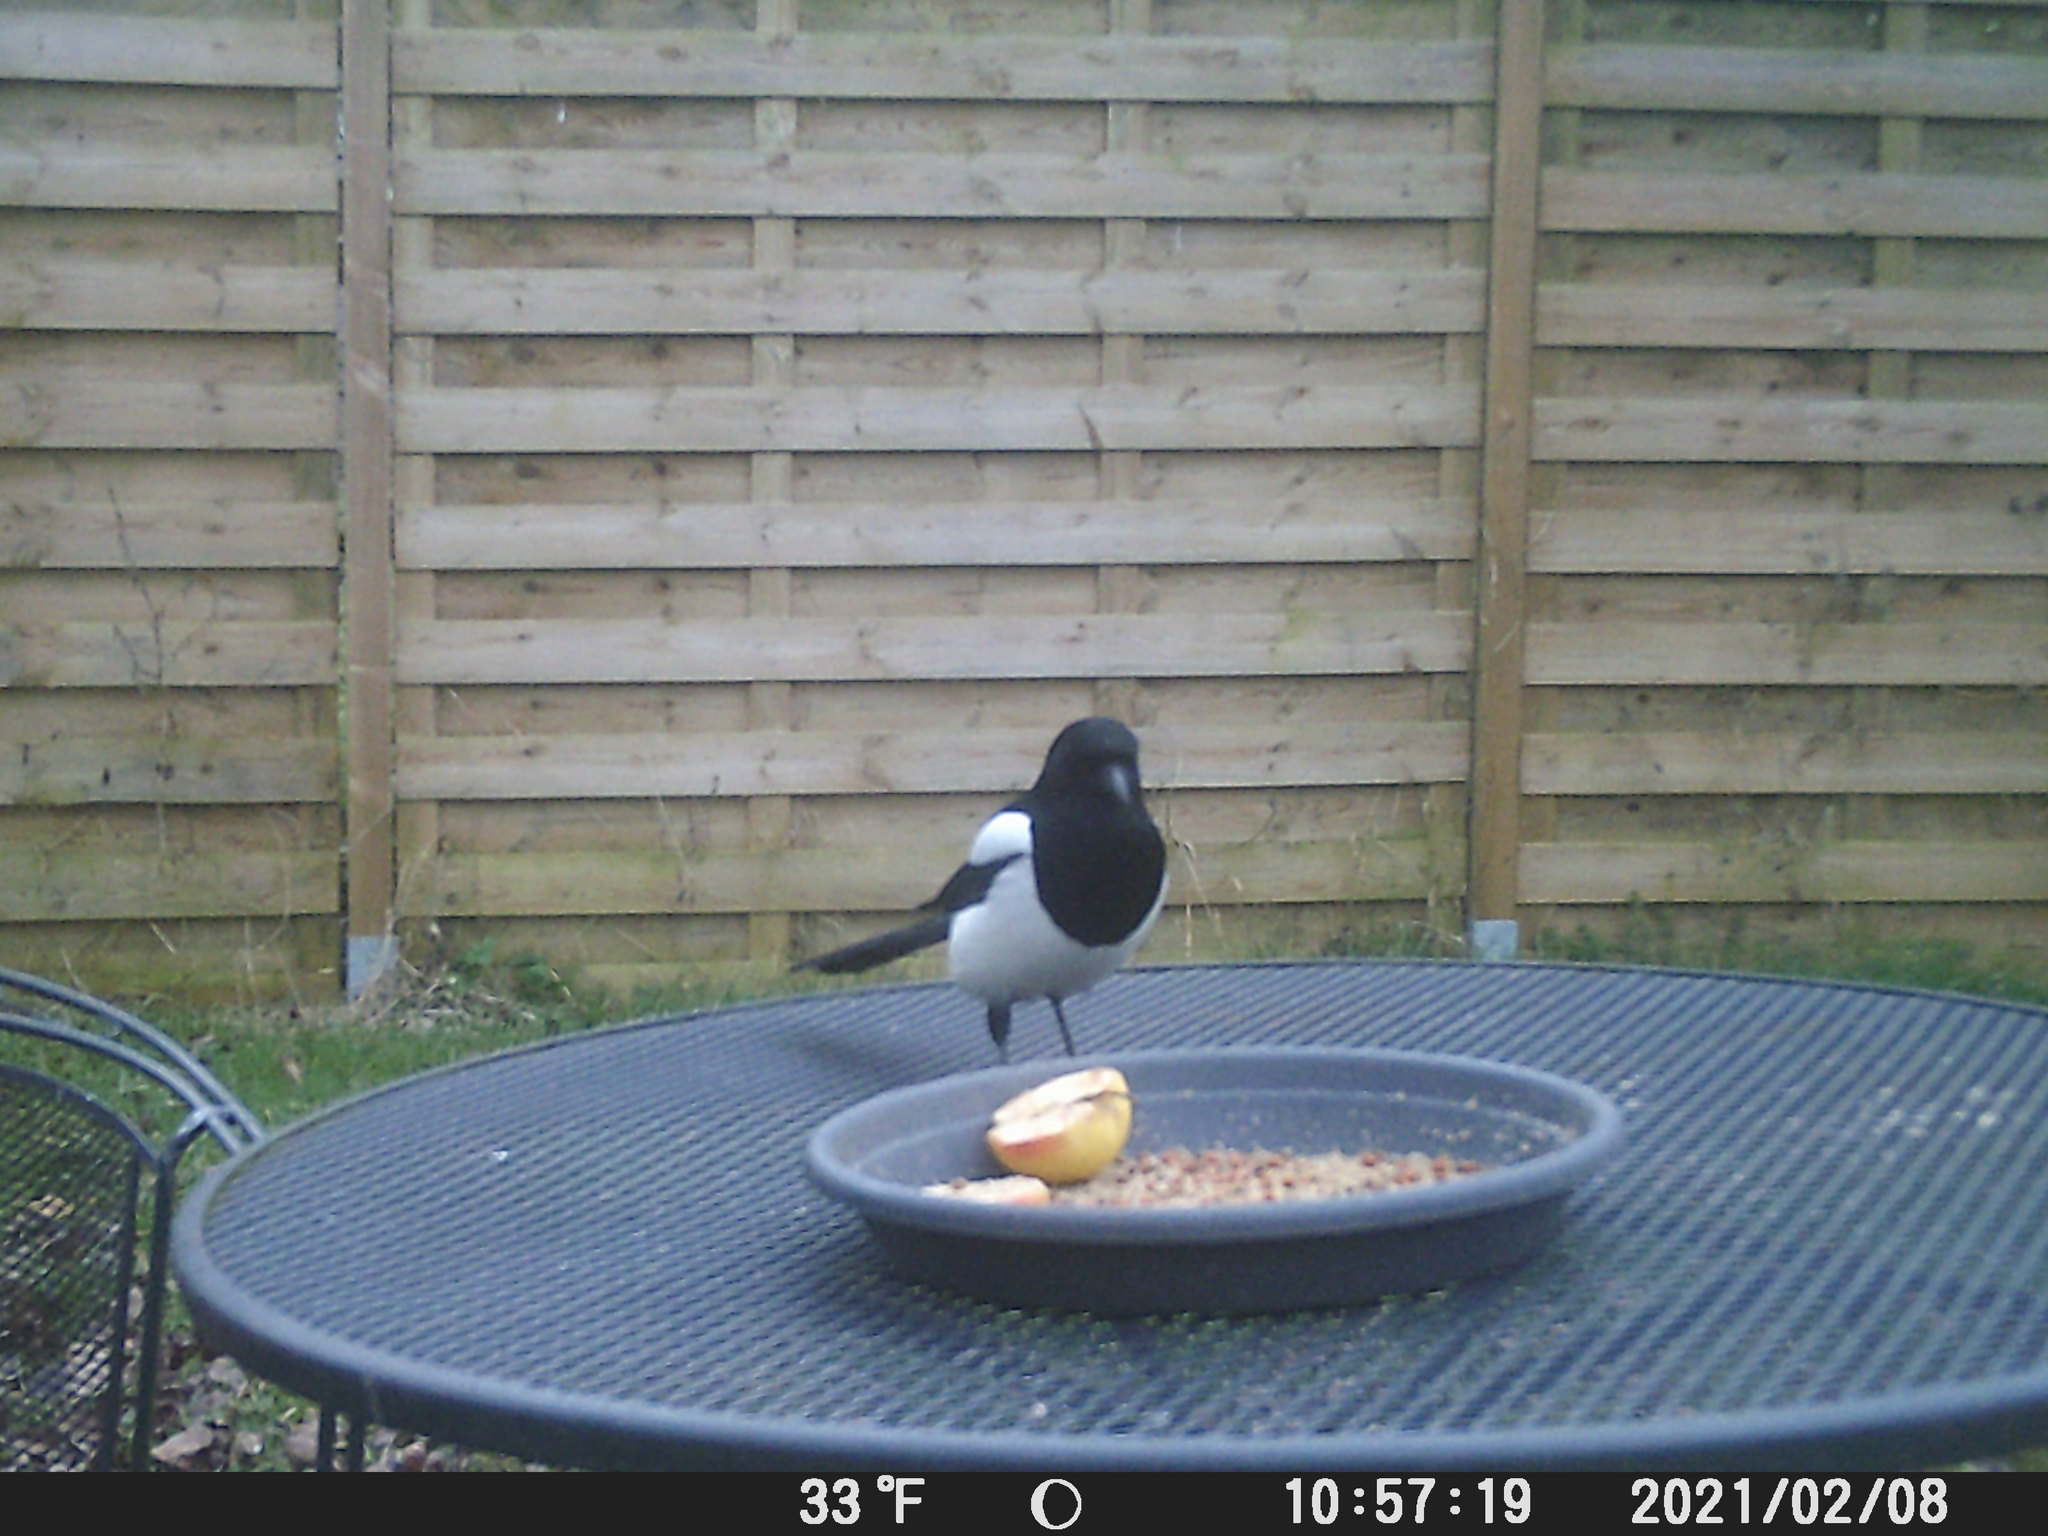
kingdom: Animalia
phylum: Chordata
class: Aves
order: Passeriformes
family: Corvidae
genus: Pica
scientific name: Pica pica
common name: Eurasian magpie
